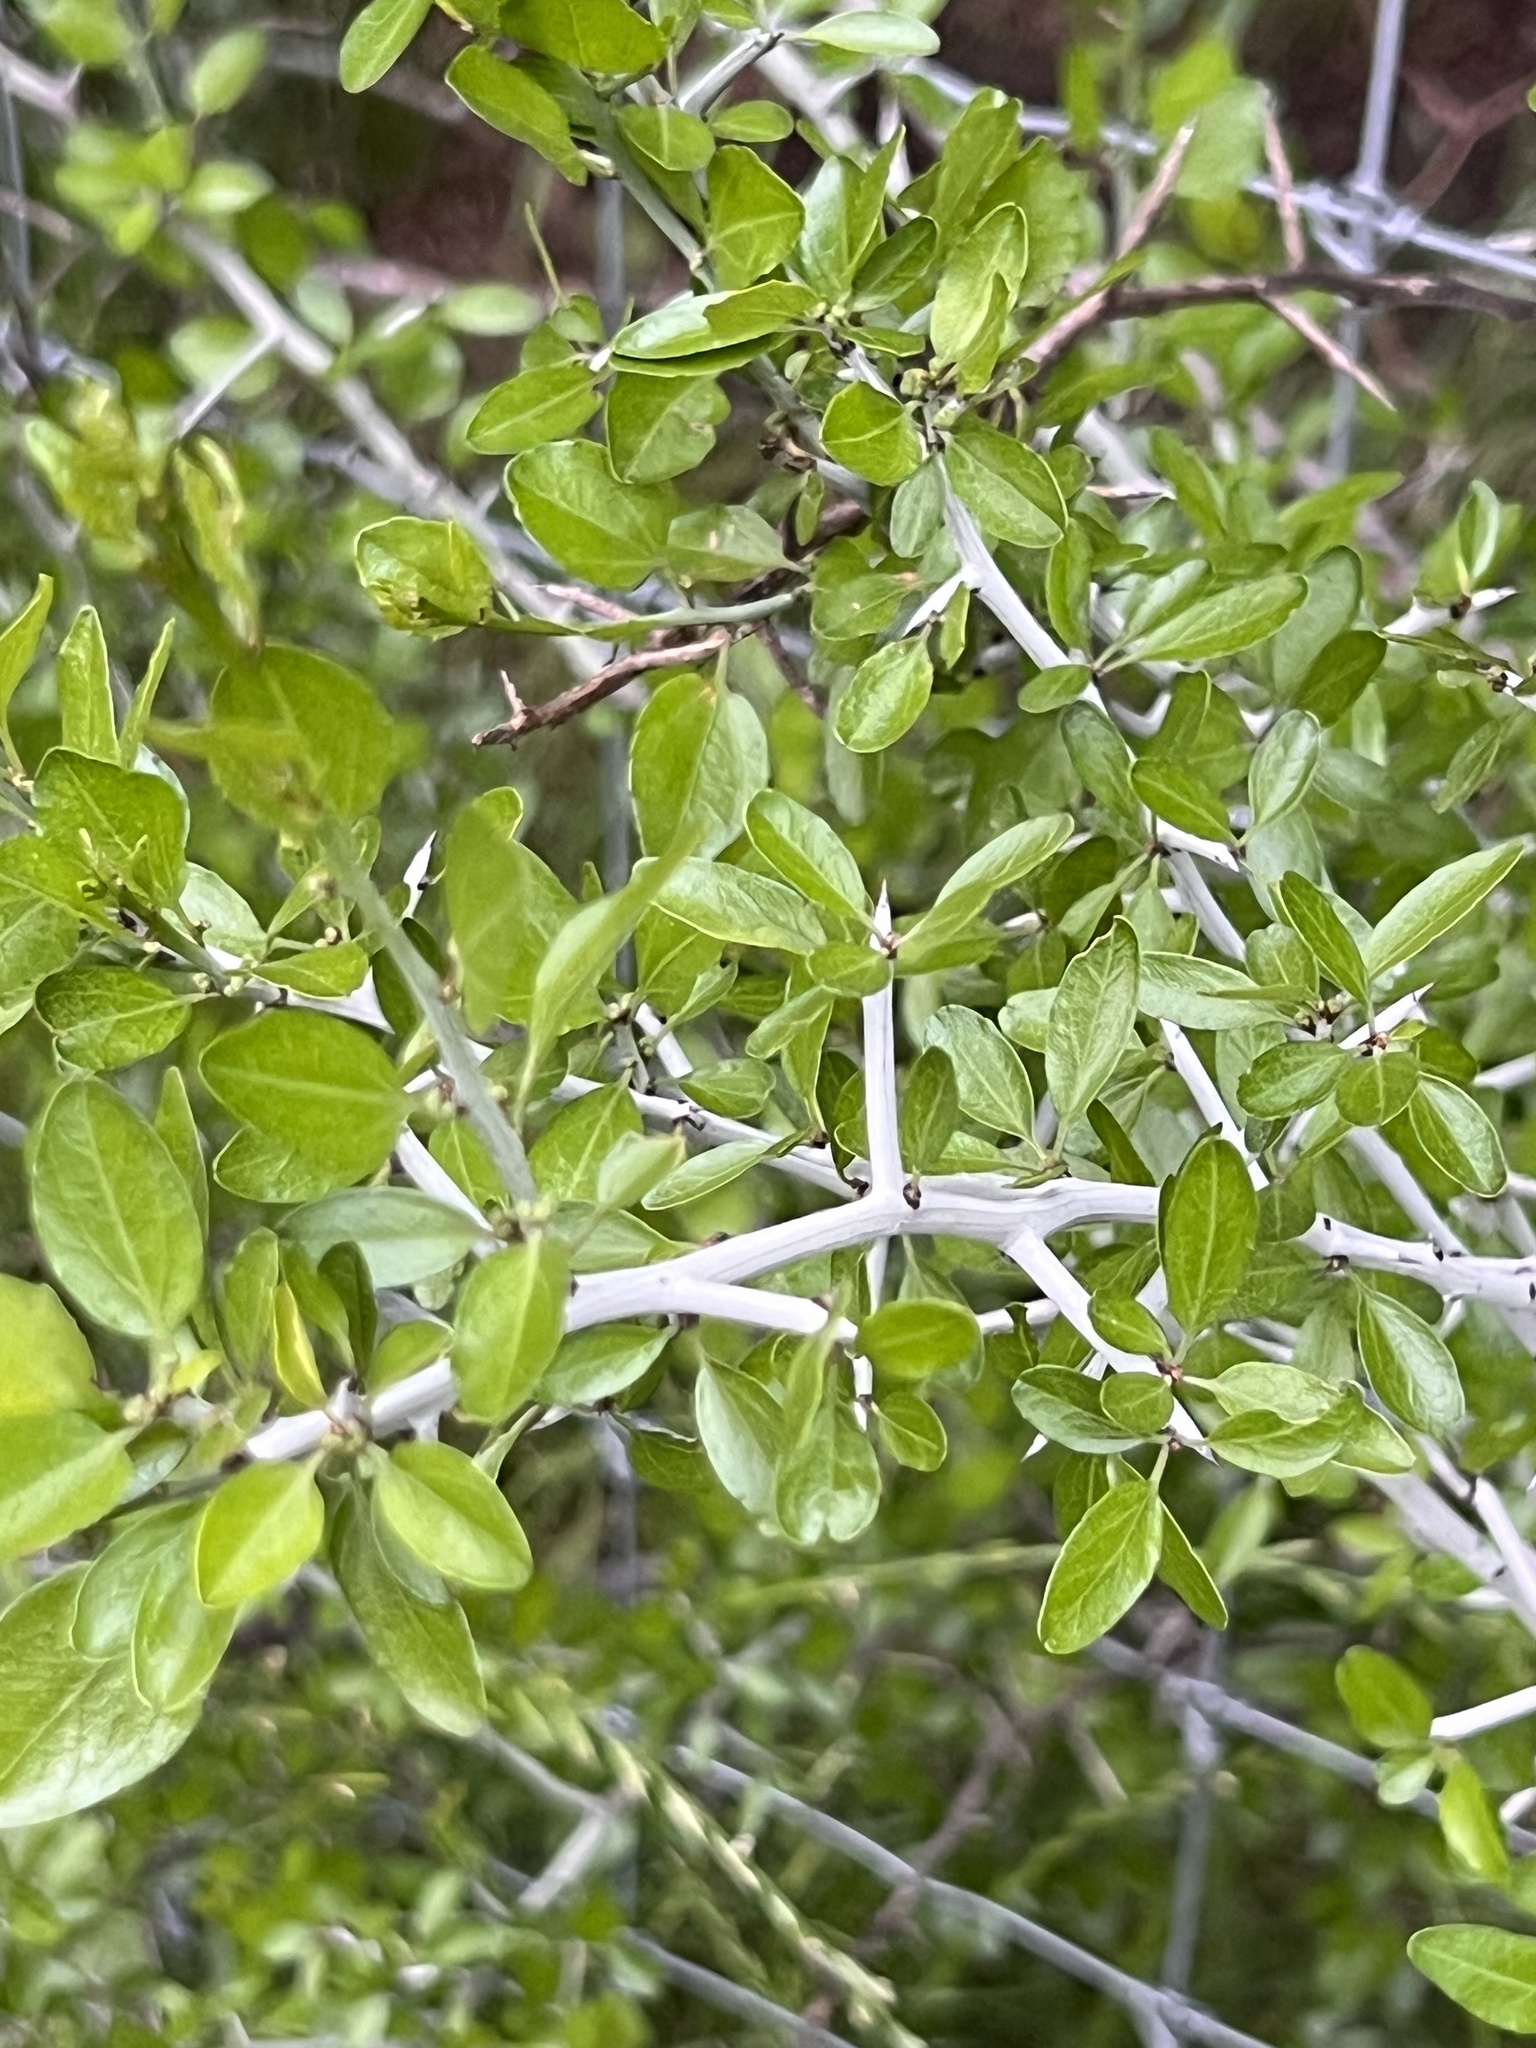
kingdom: Plantae
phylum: Tracheophyta
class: Magnoliopsida
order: Rosales
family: Rhamnaceae
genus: Sarcomphalus
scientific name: Sarcomphalus obtusifolius
